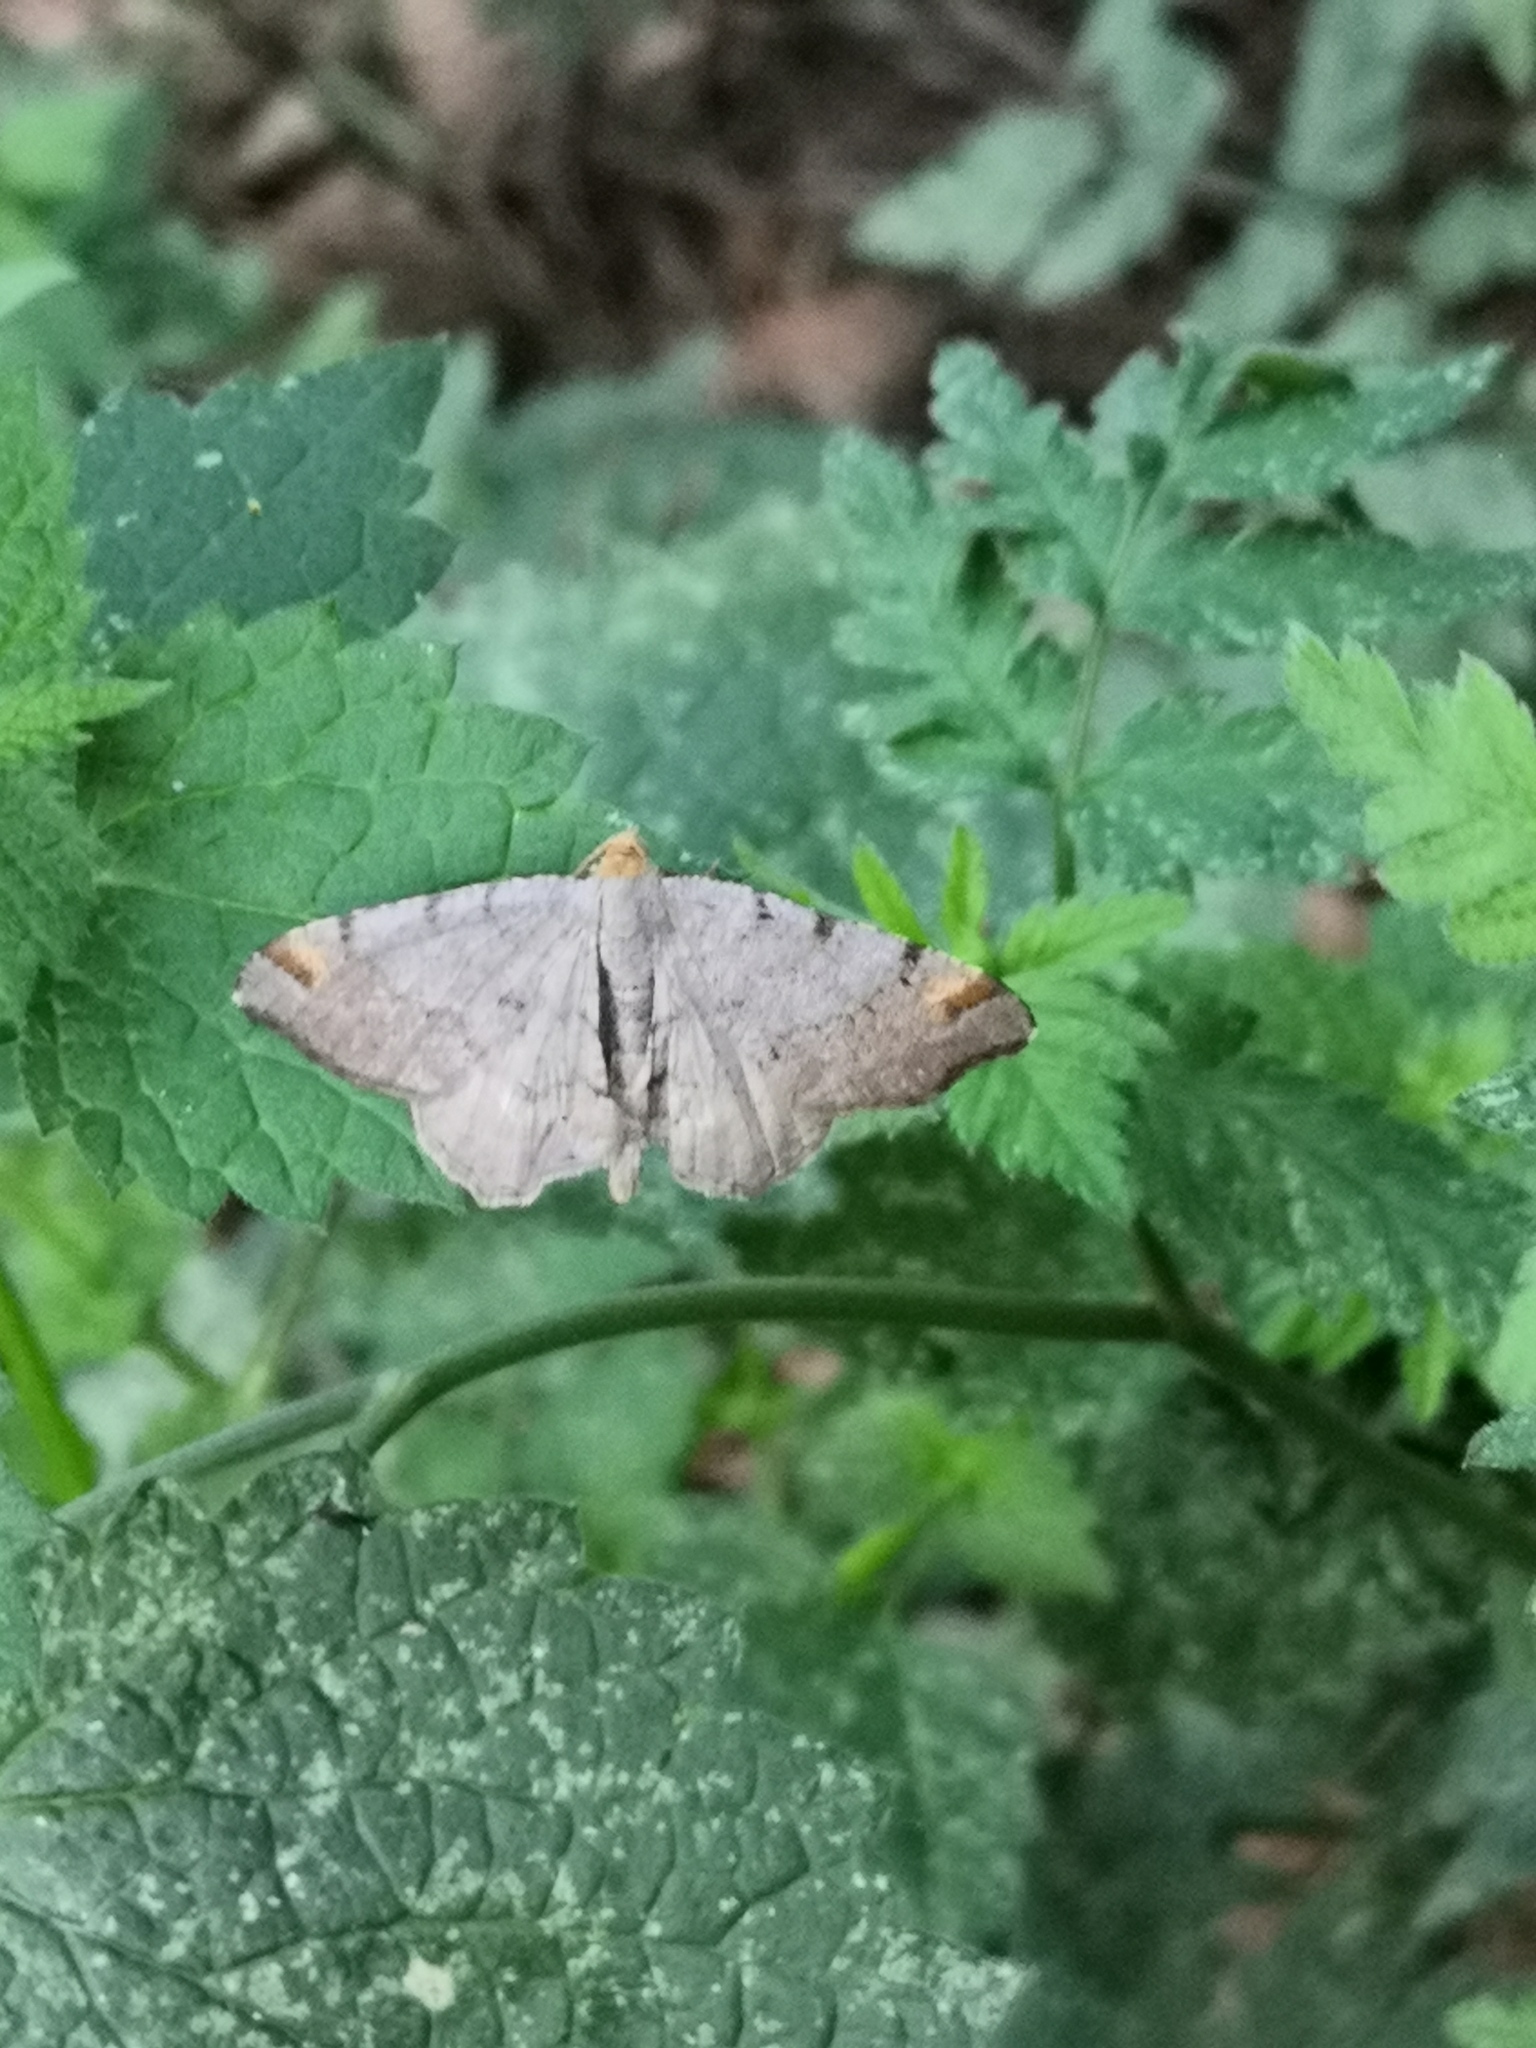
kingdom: Animalia
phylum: Arthropoda
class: Insecta
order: Lepidoptera
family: Geometridae
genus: Macaria
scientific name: Macaria liturata
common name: Tawny-barred angle
